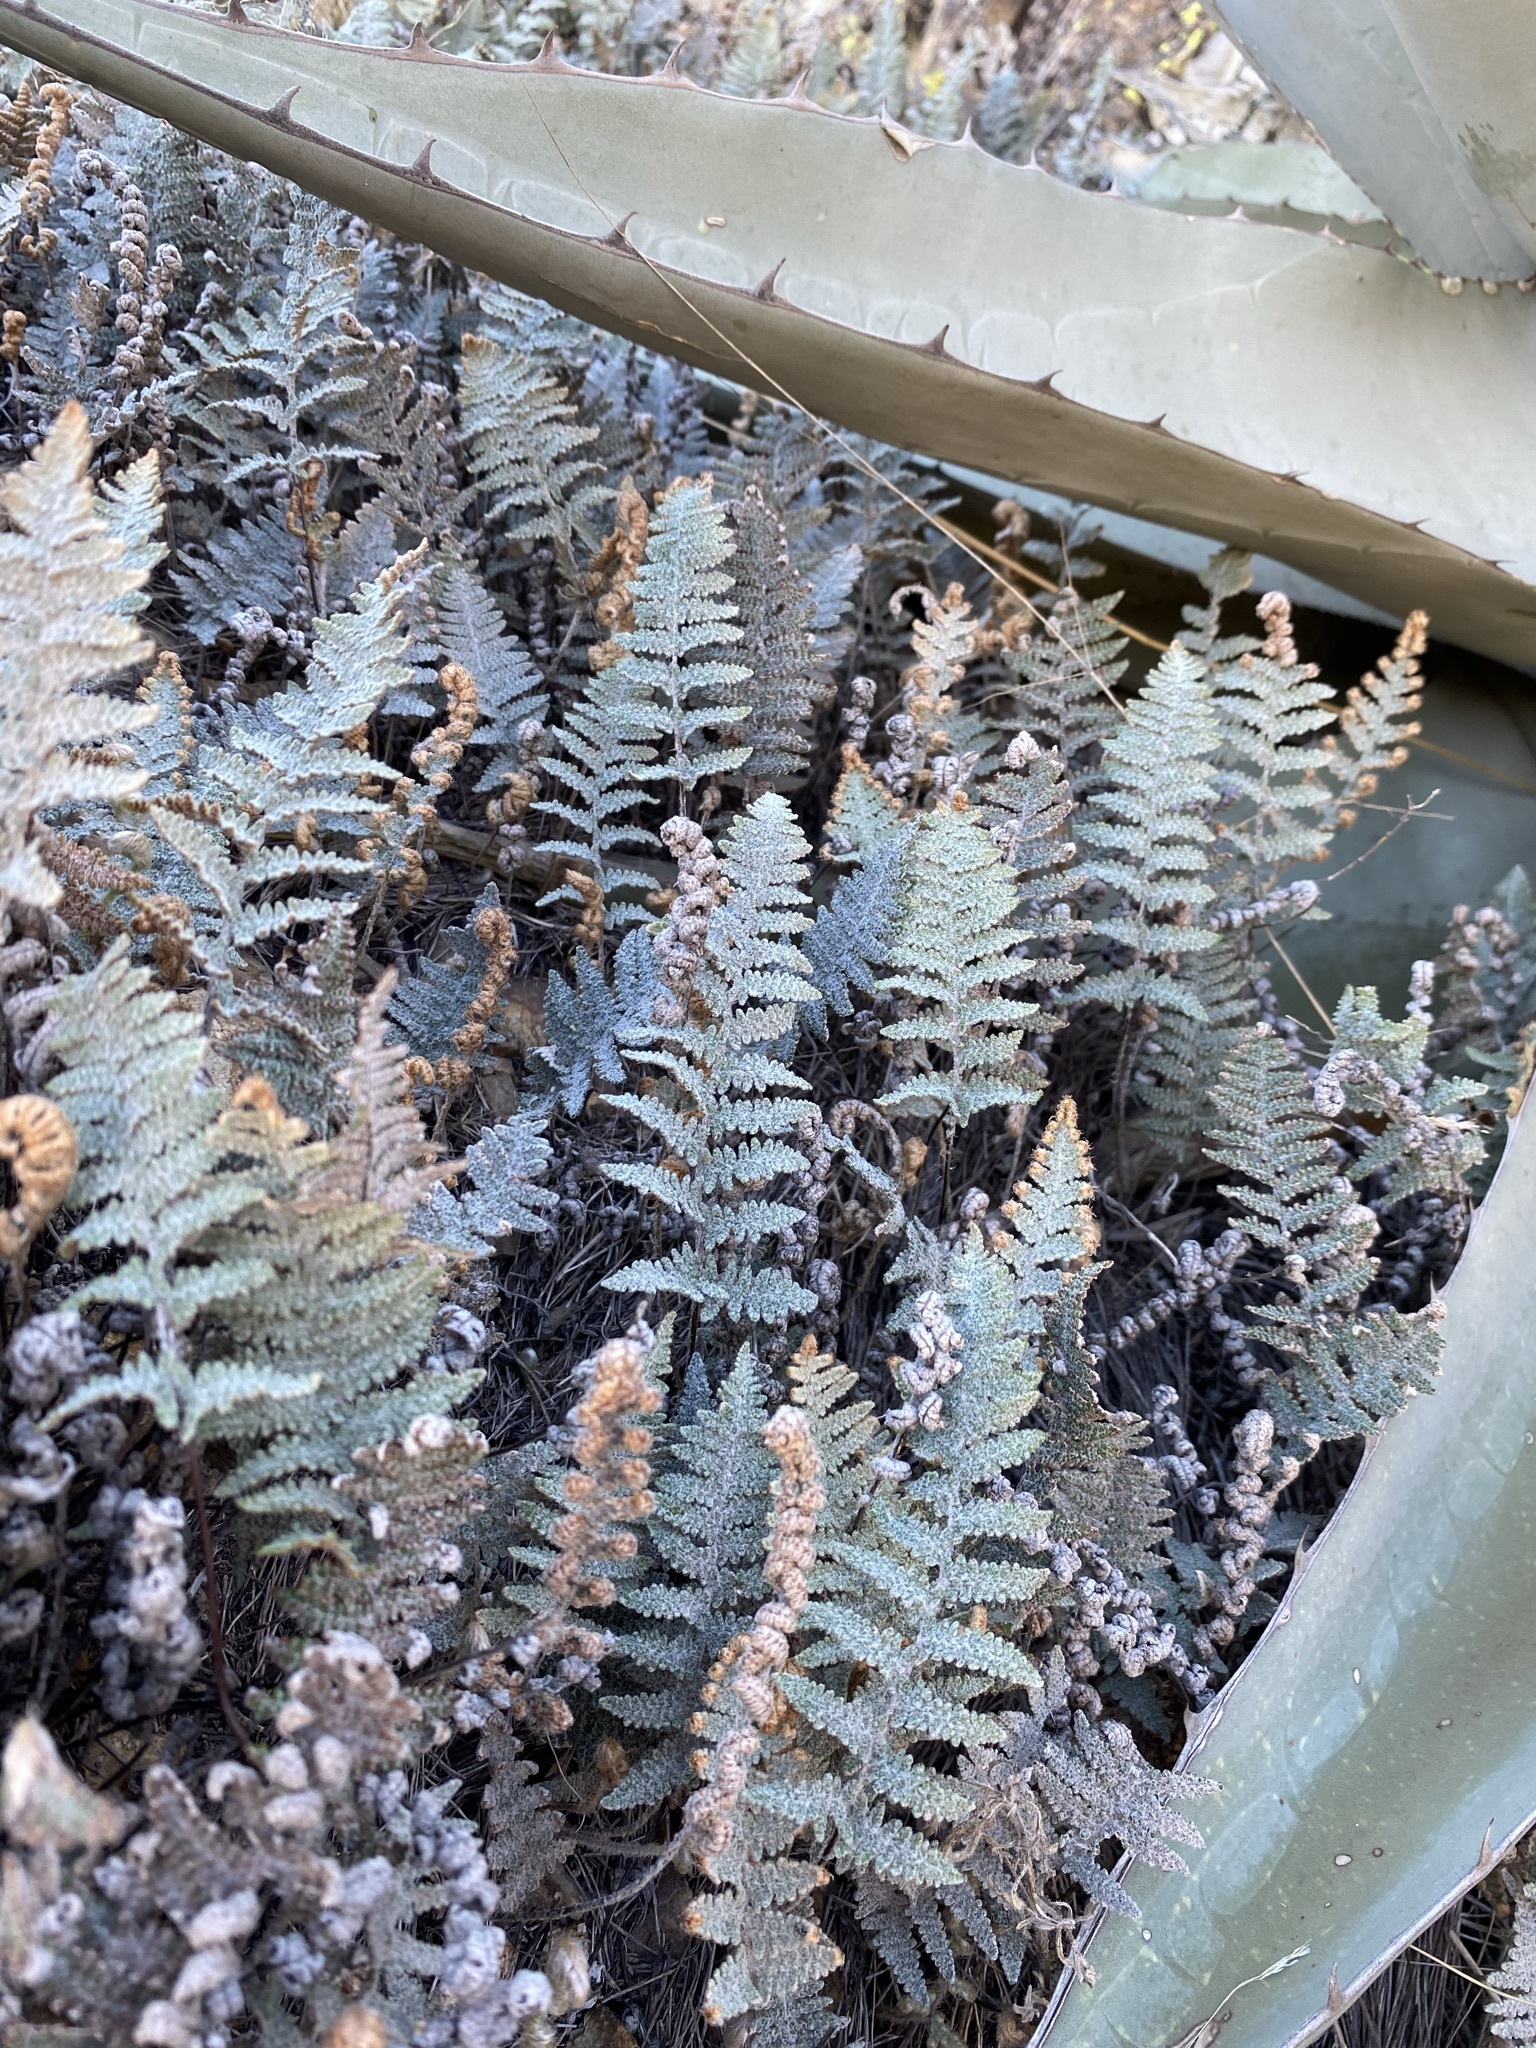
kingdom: Plantae
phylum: Tracheophyta
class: Polypodiopsida
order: Polypodiales
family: Pteridaceae
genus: Myriopteris
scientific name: Myriopteris lindheimeri
